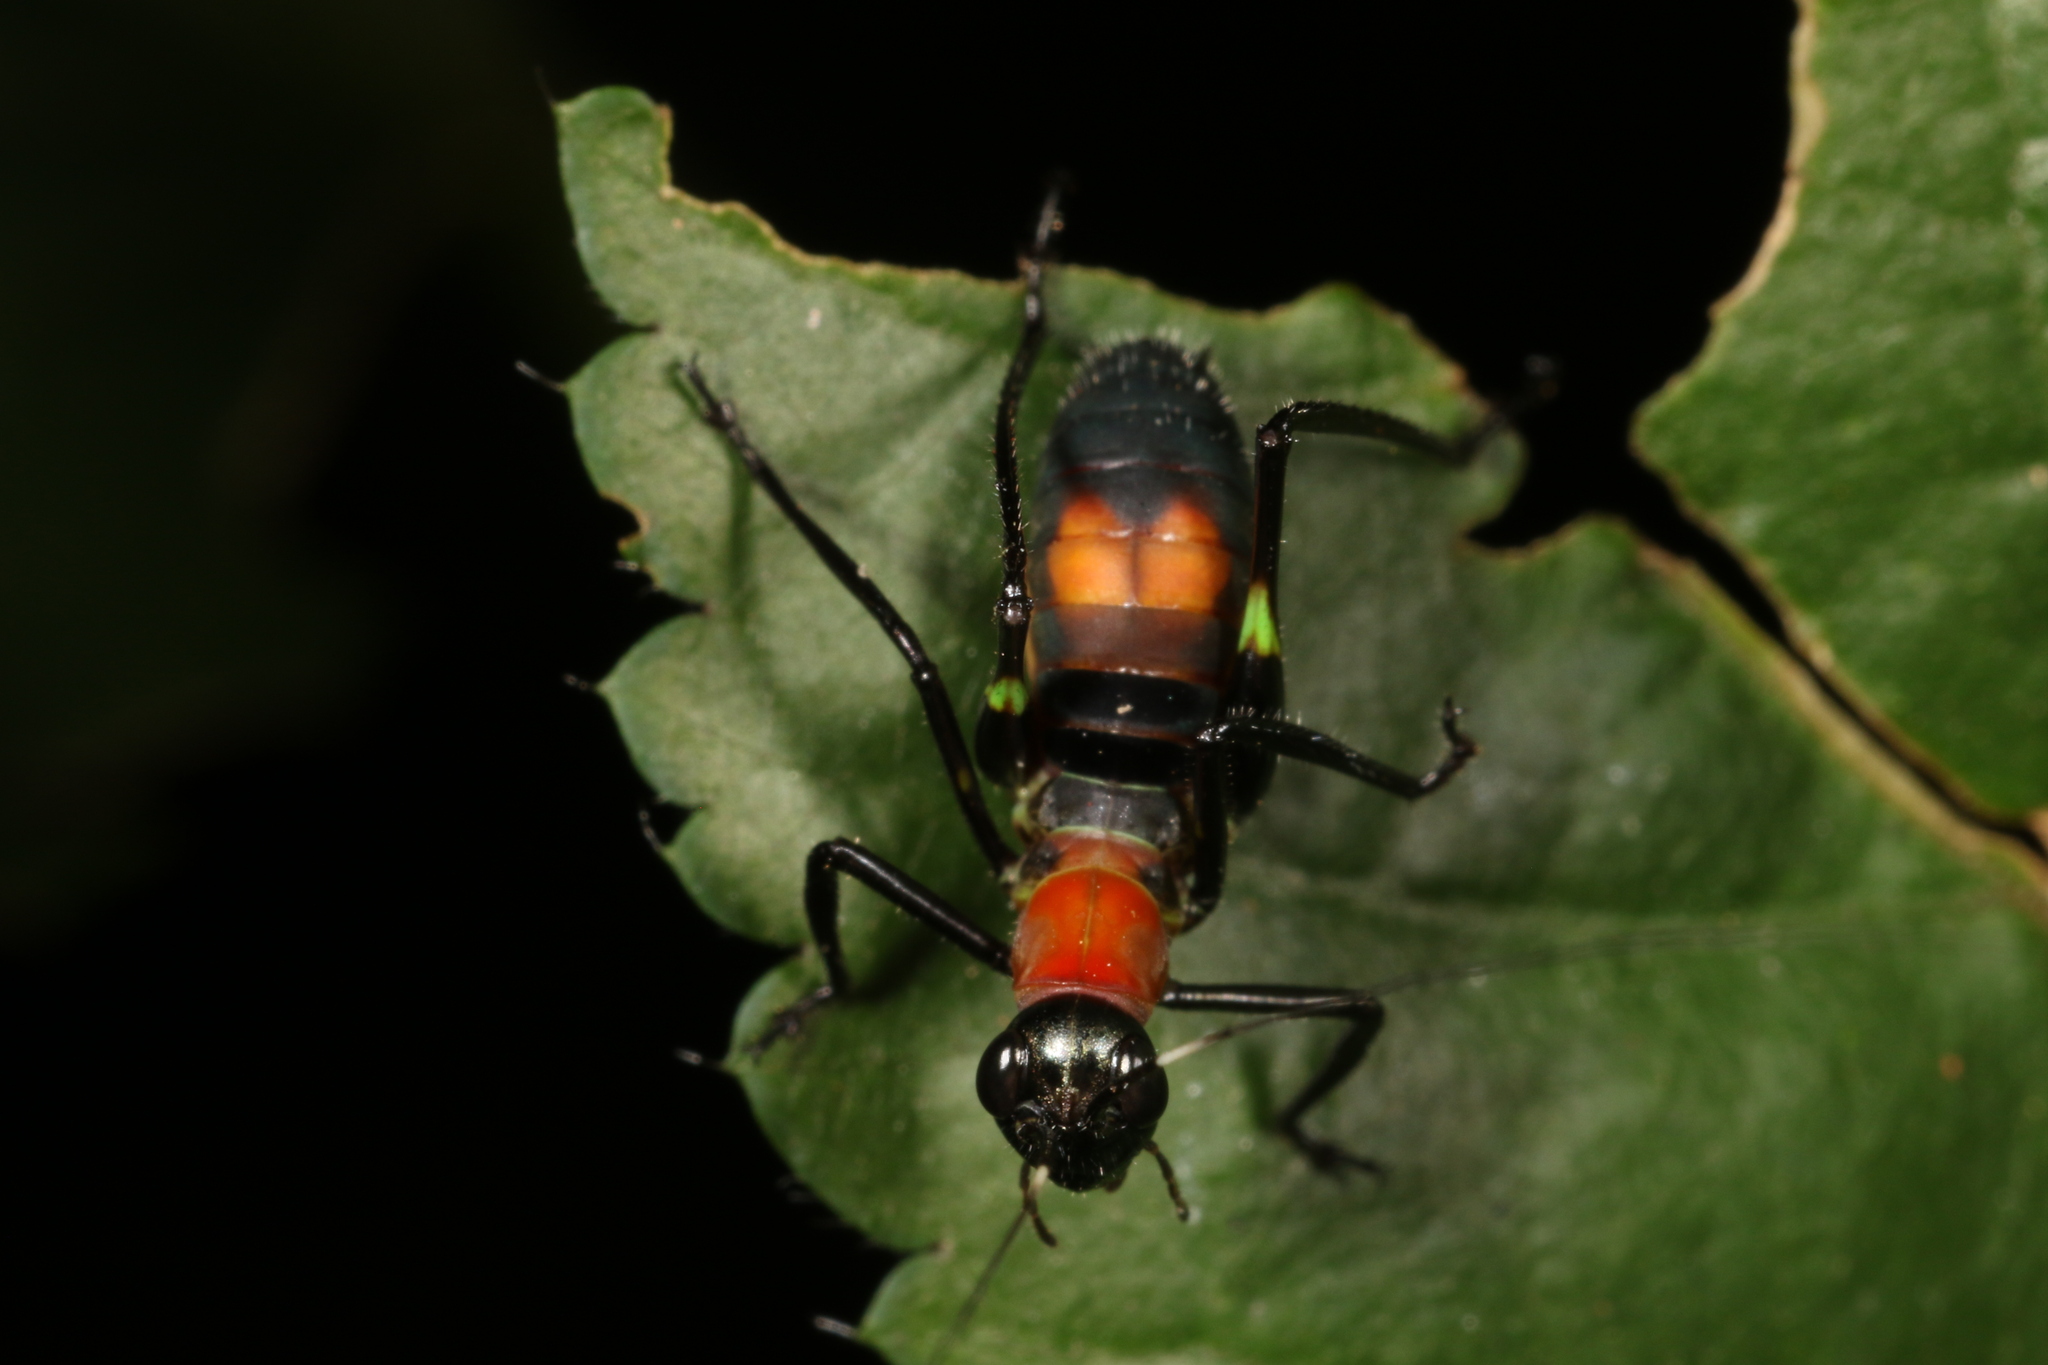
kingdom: Animalia
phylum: Arthropoda
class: Insecta
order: Orthoptera
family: Tettigoniidae
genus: Scaphura
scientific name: Scaphura nigra
